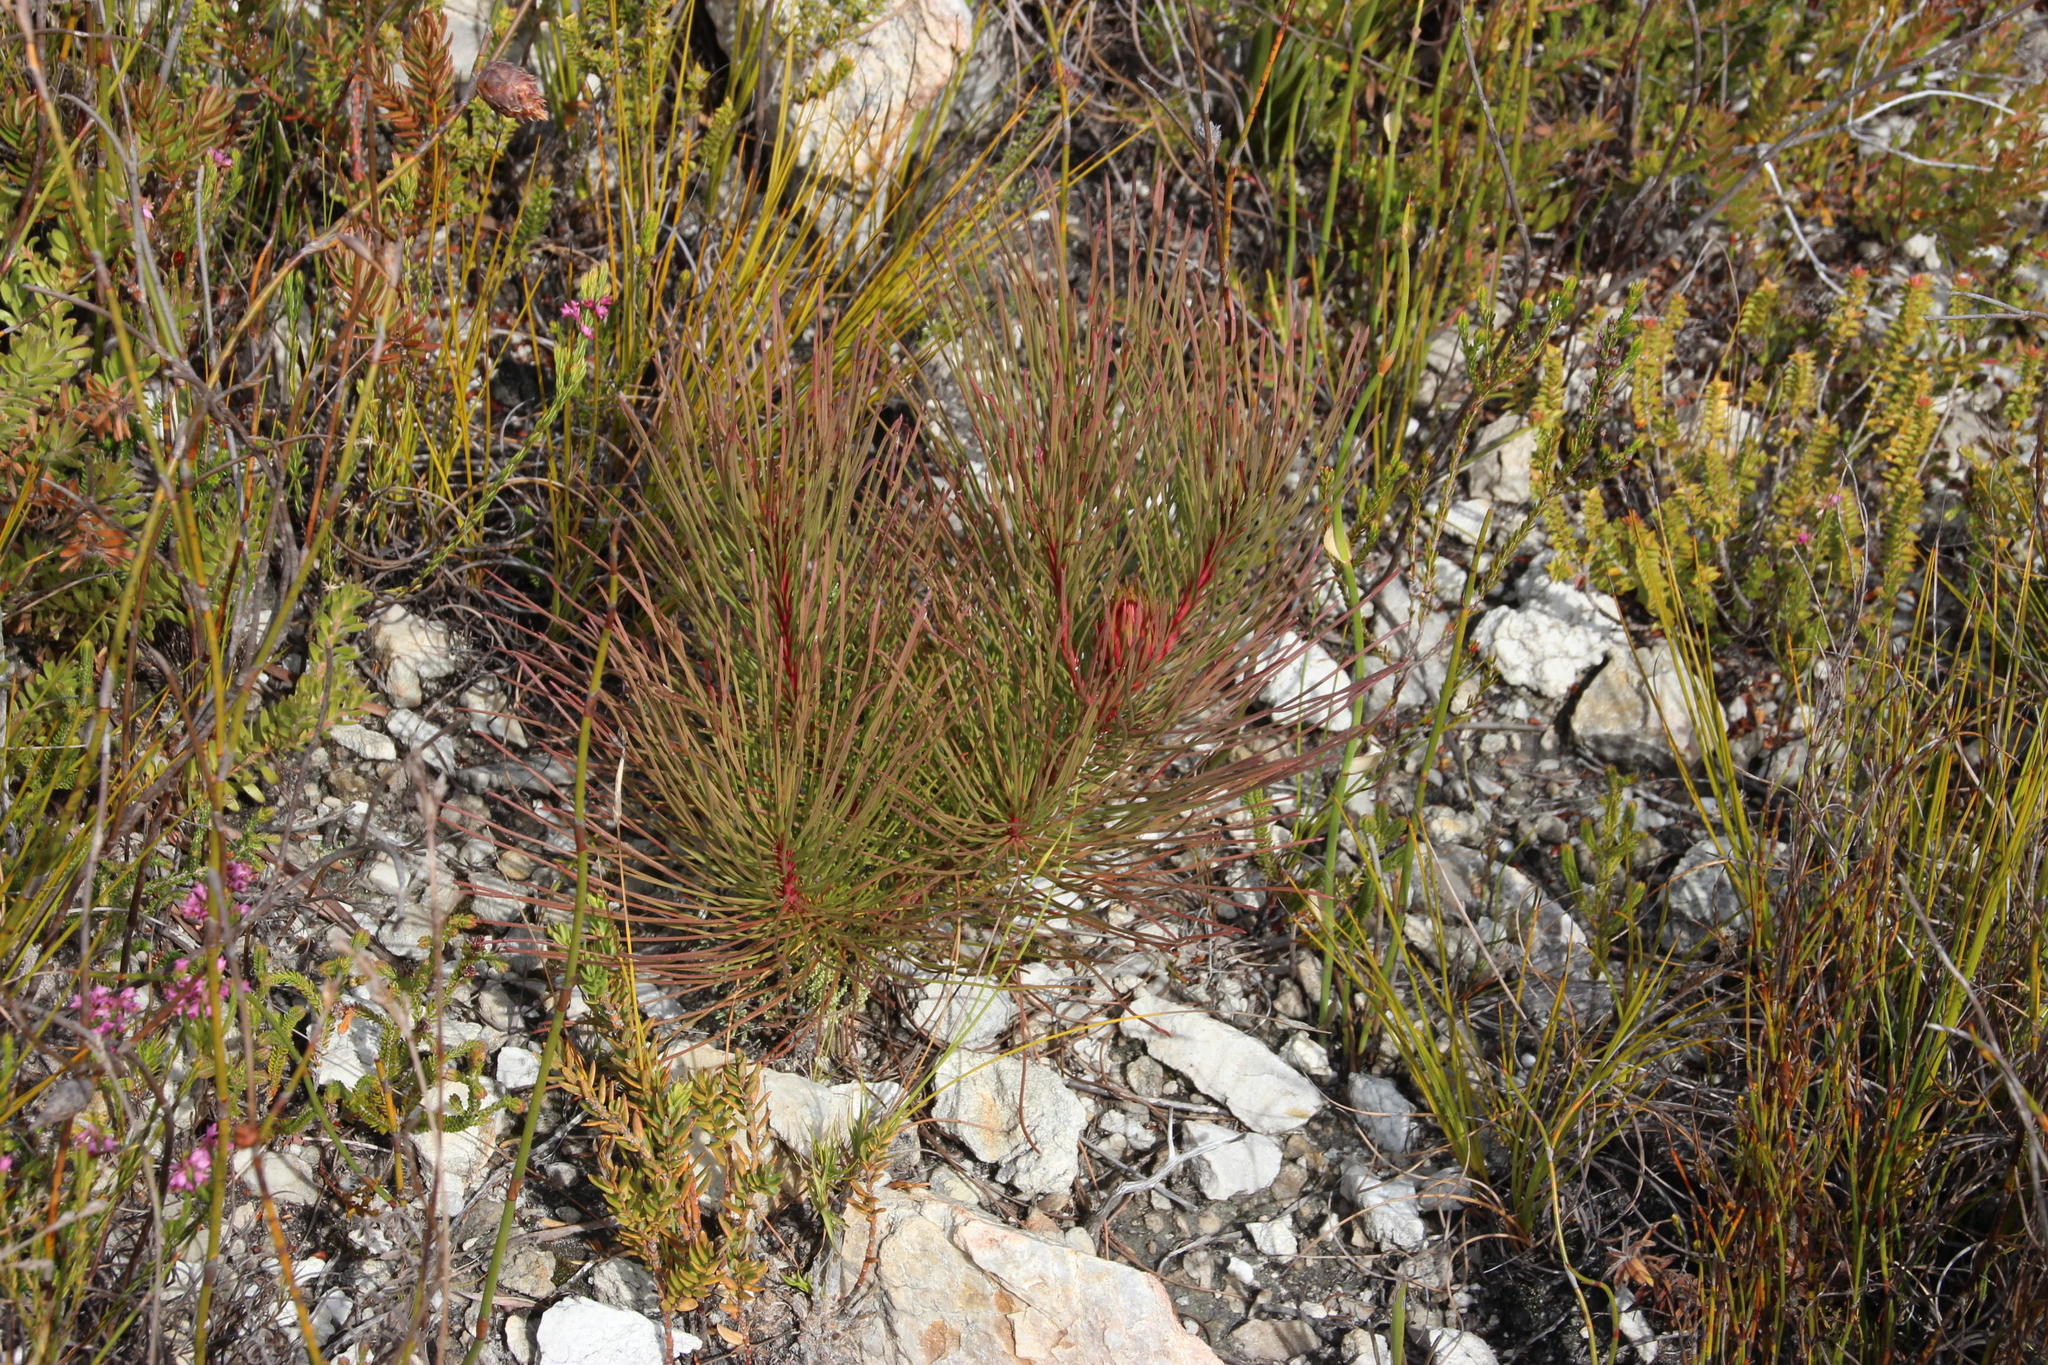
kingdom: Plantae
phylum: Tracheophyta
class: Magnoliopsida
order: Proteales
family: Proteaceae
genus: Aulax
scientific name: Aulax cancellata
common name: Channel-leaf featherbush
